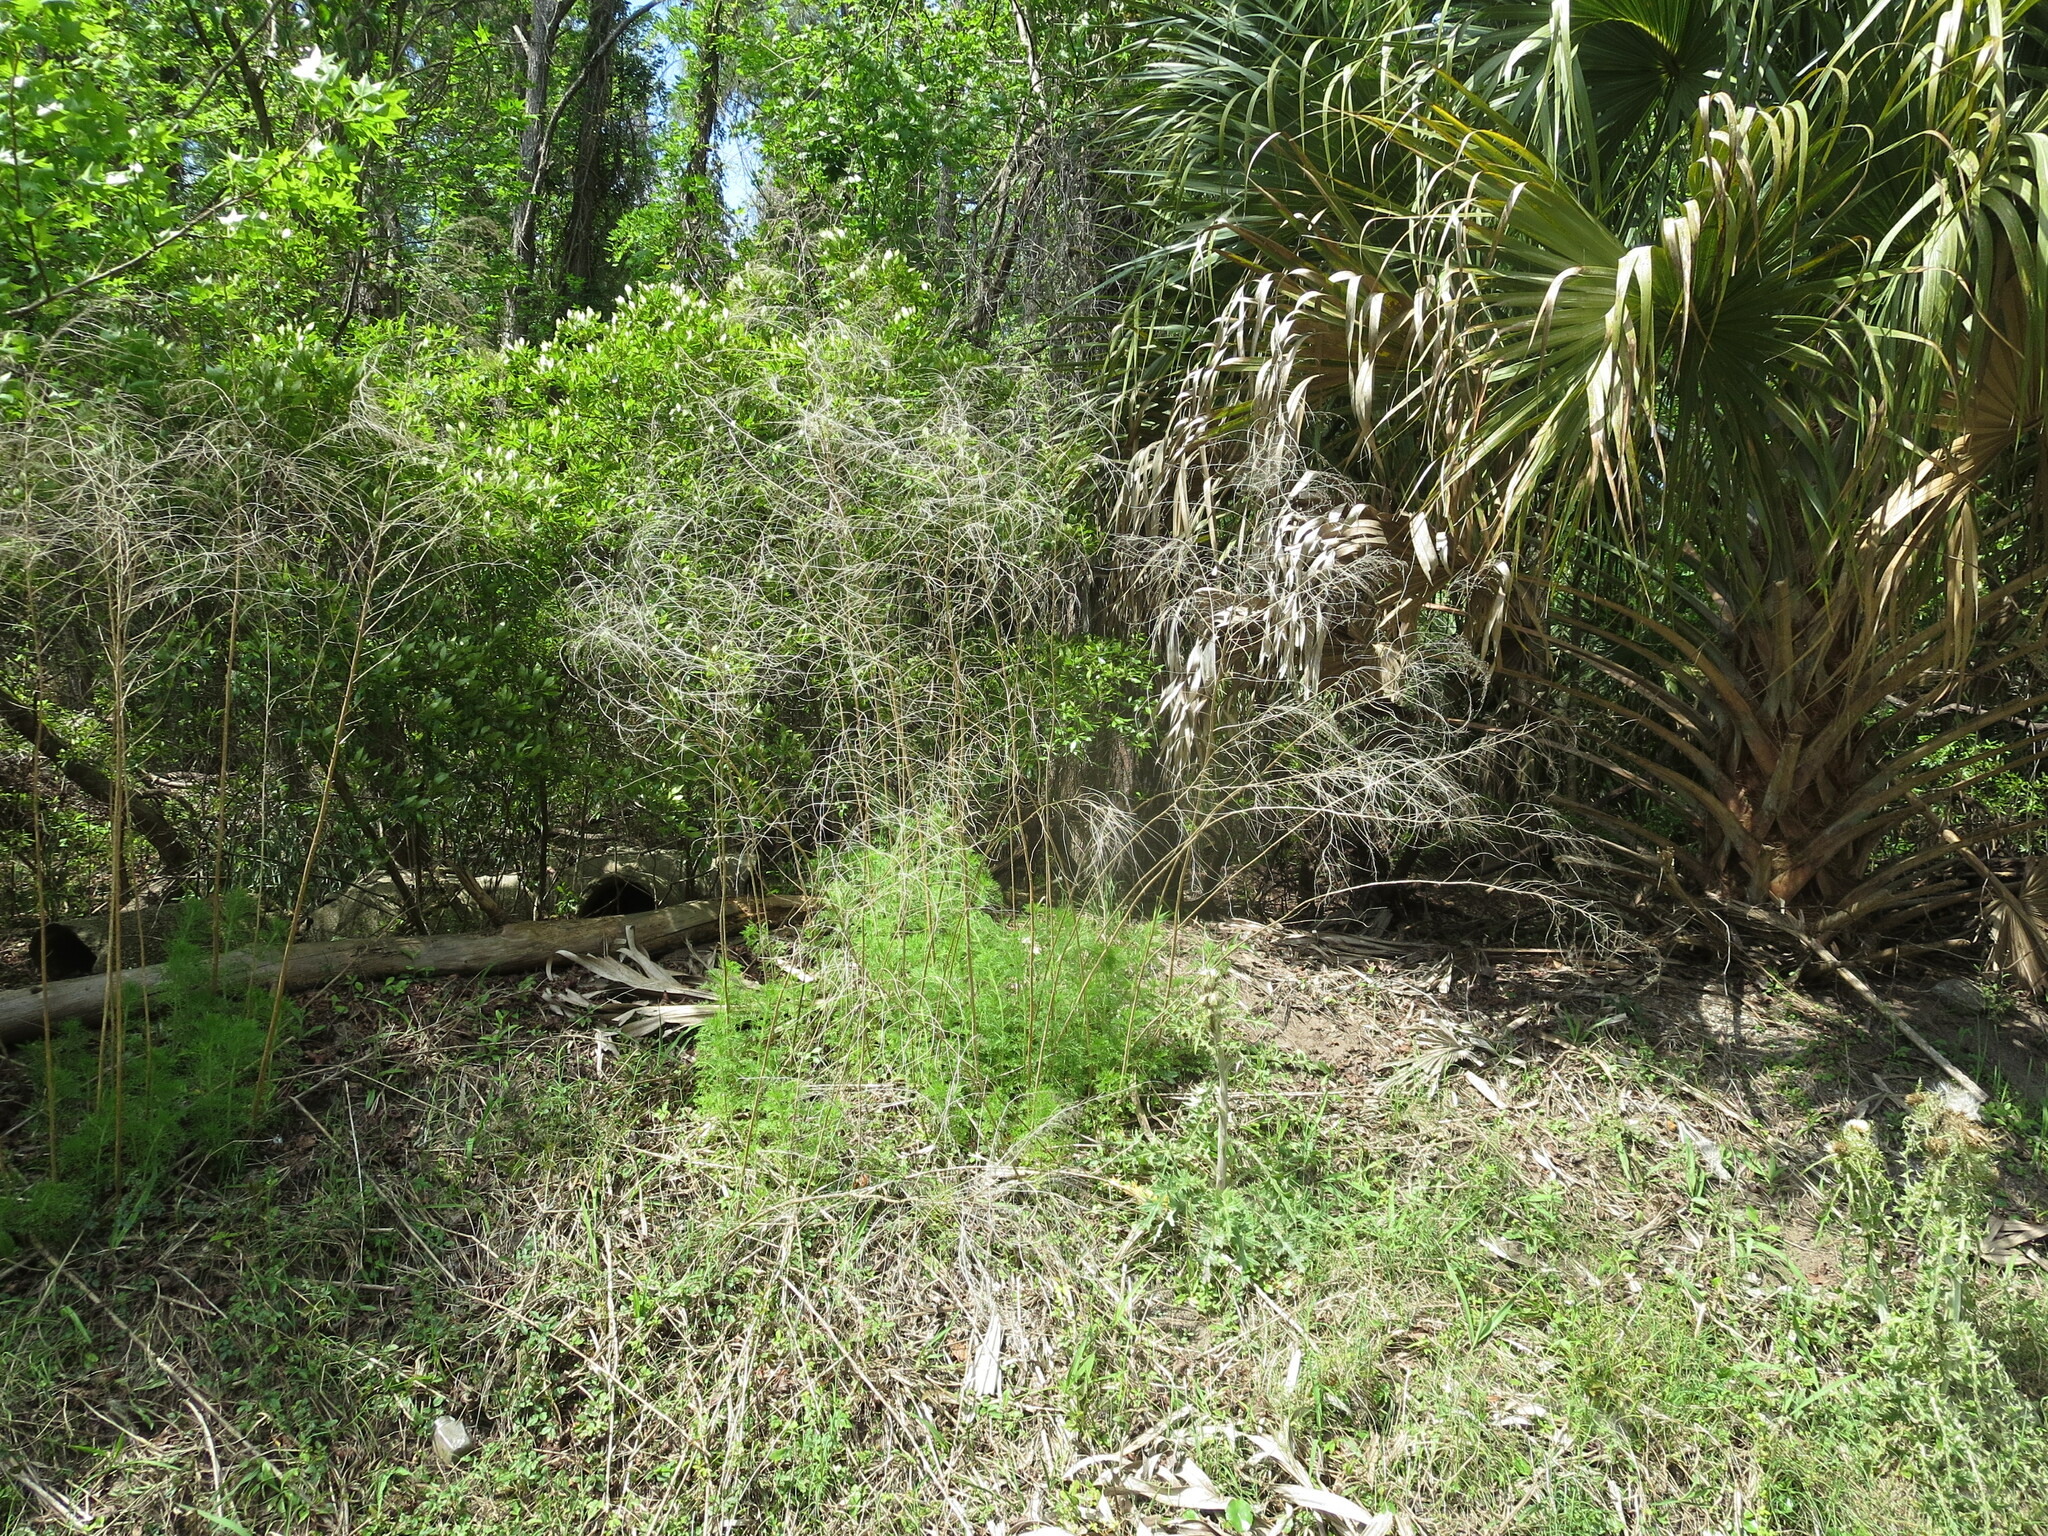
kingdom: Plantae
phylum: Tracheophyta
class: Magnoliopsida
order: Asterales
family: Asteraceae
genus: Eupatorium
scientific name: Eupatorium capillifolium
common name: Dog-fennel
